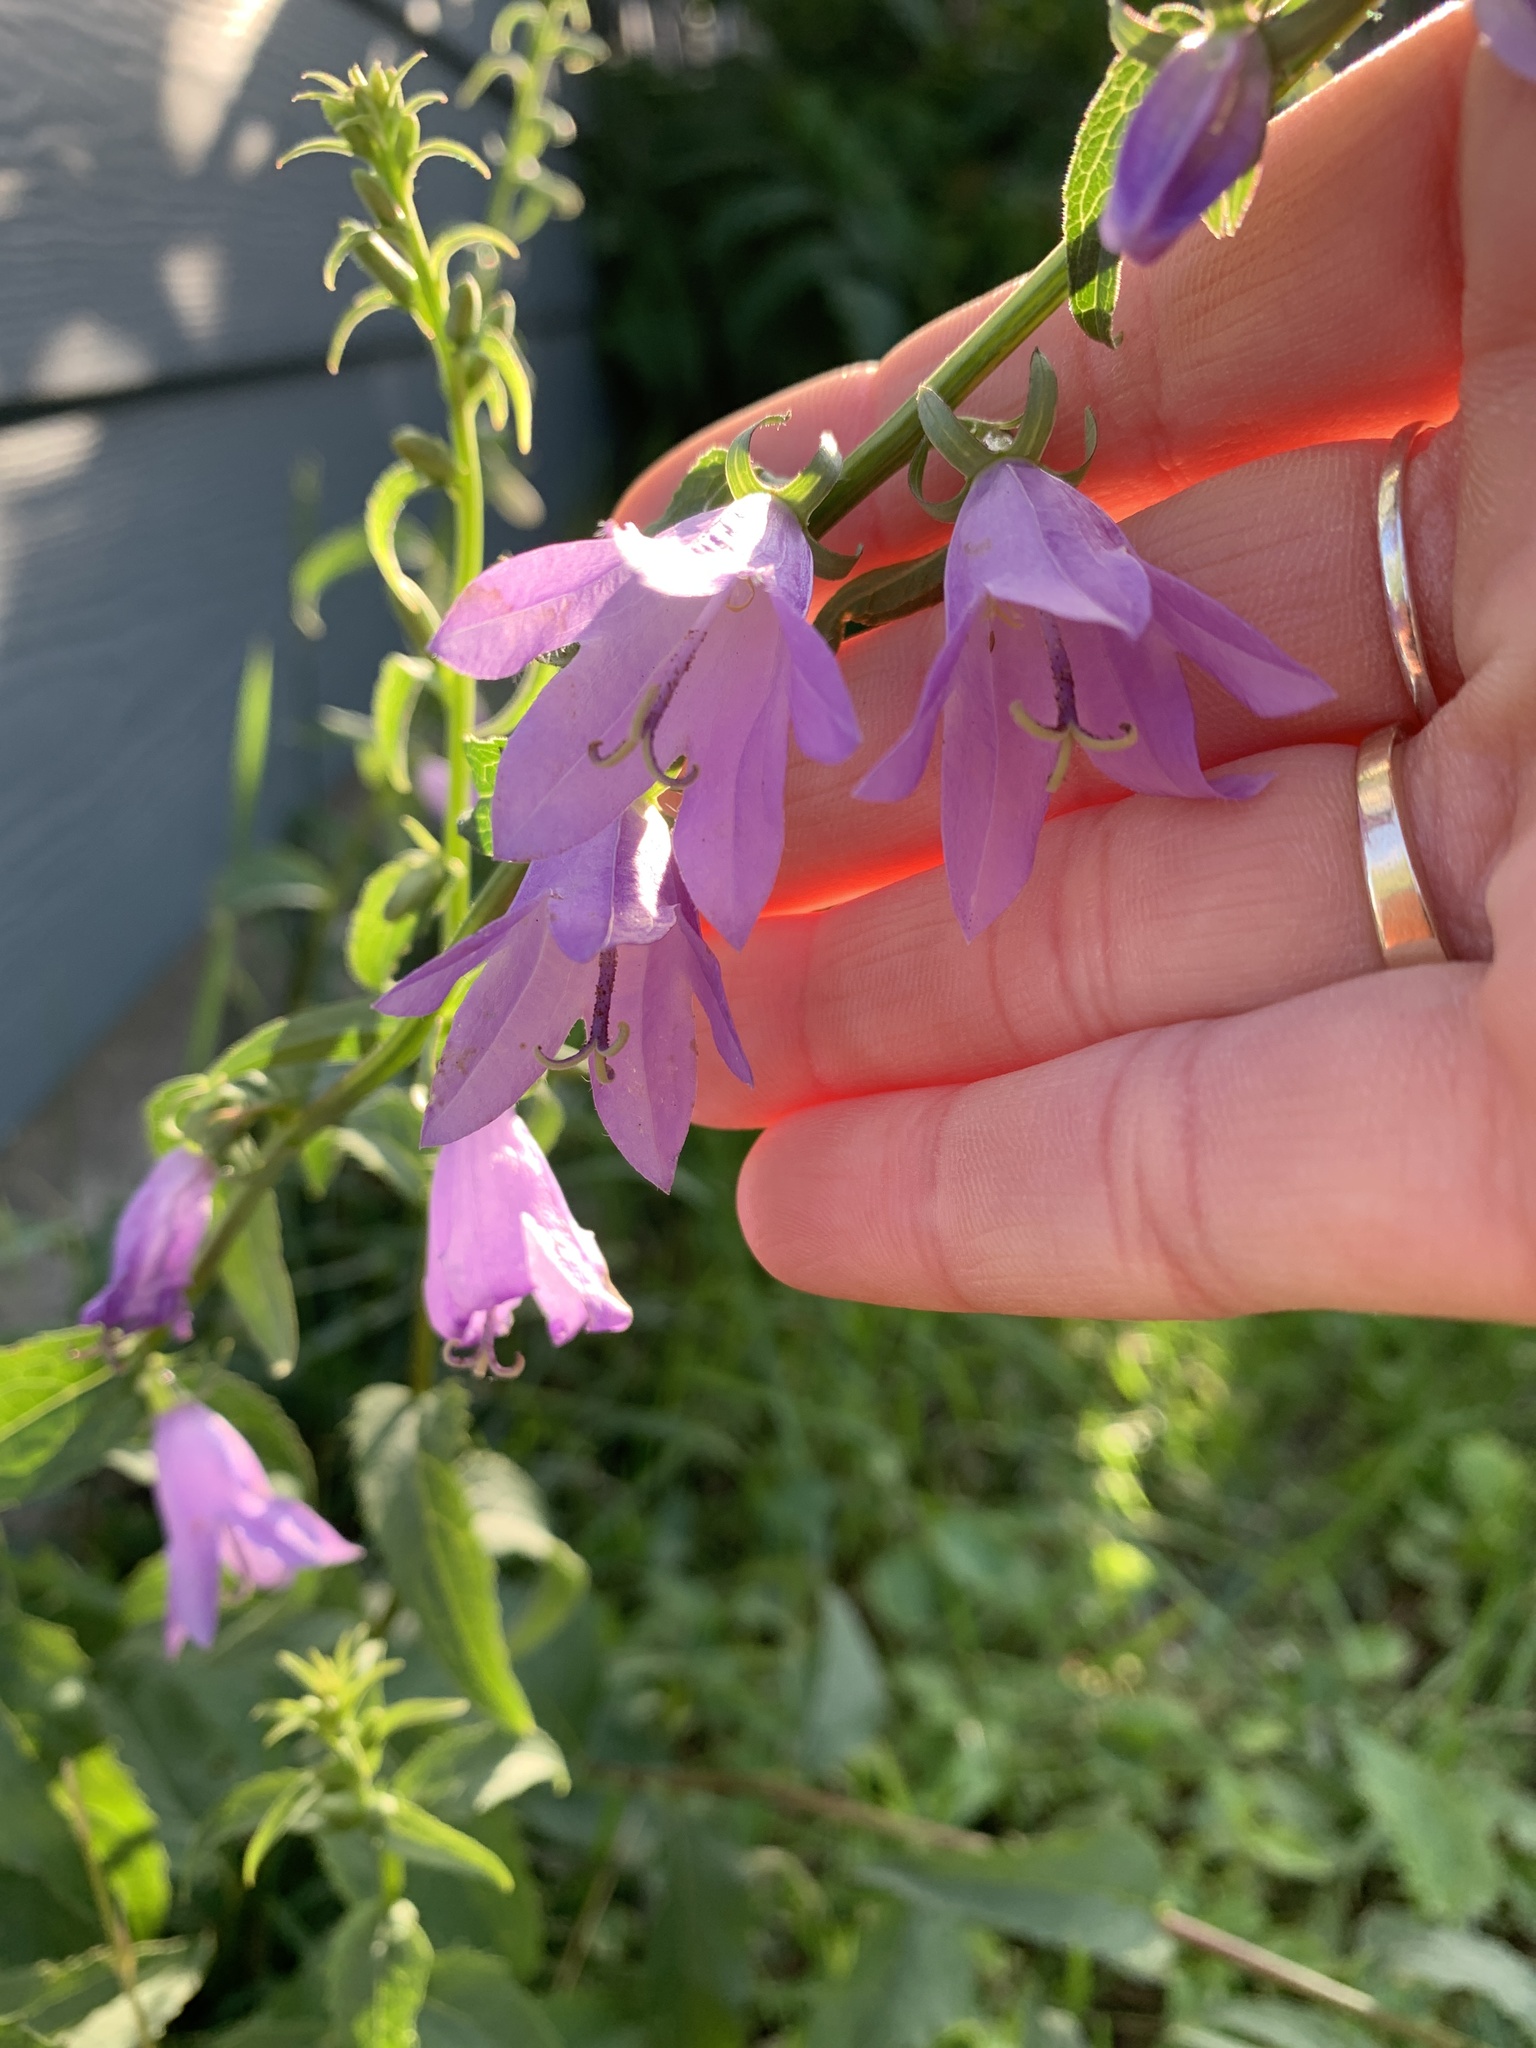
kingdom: Plantae
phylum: Tracheophyta
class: Magnoliopsida
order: Asterales
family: Campanulaceae
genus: Campanula
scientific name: Campanula rapunculoides
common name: Creeping bellflower
